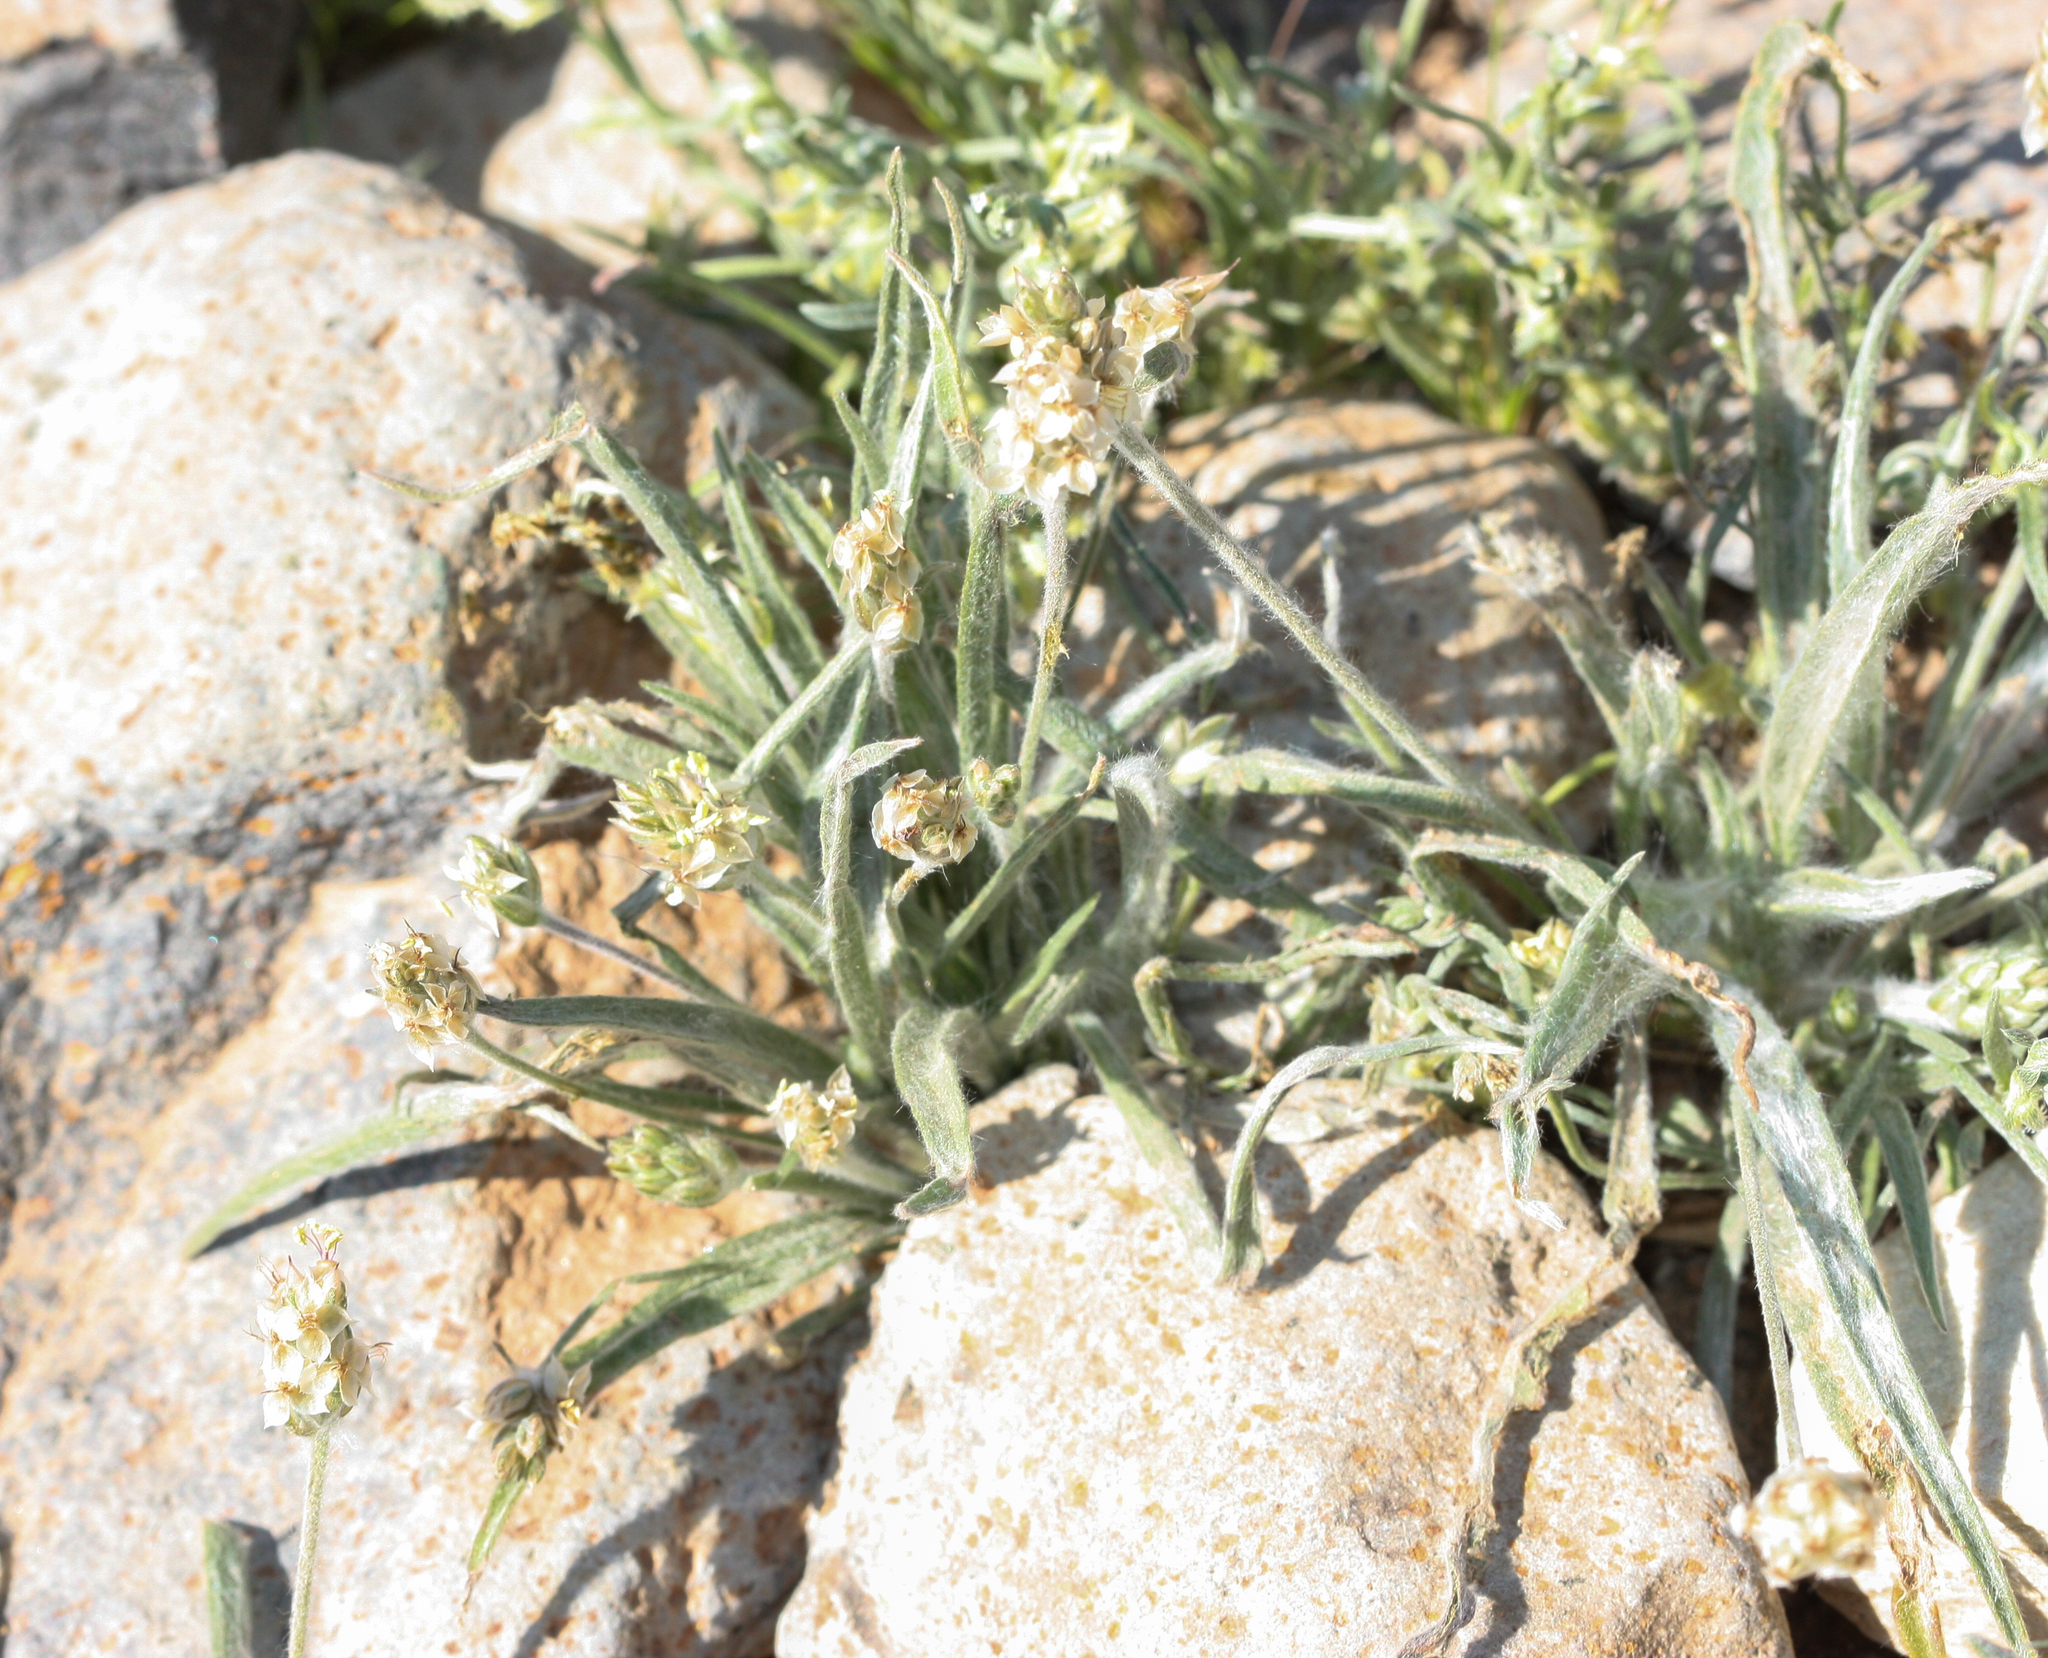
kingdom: Plantae
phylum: Tracheophyta
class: Magnoliopsida
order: Lamiales
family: Plantaginaceae
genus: Plantago
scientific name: Plantago ovata
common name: Blond plantain
